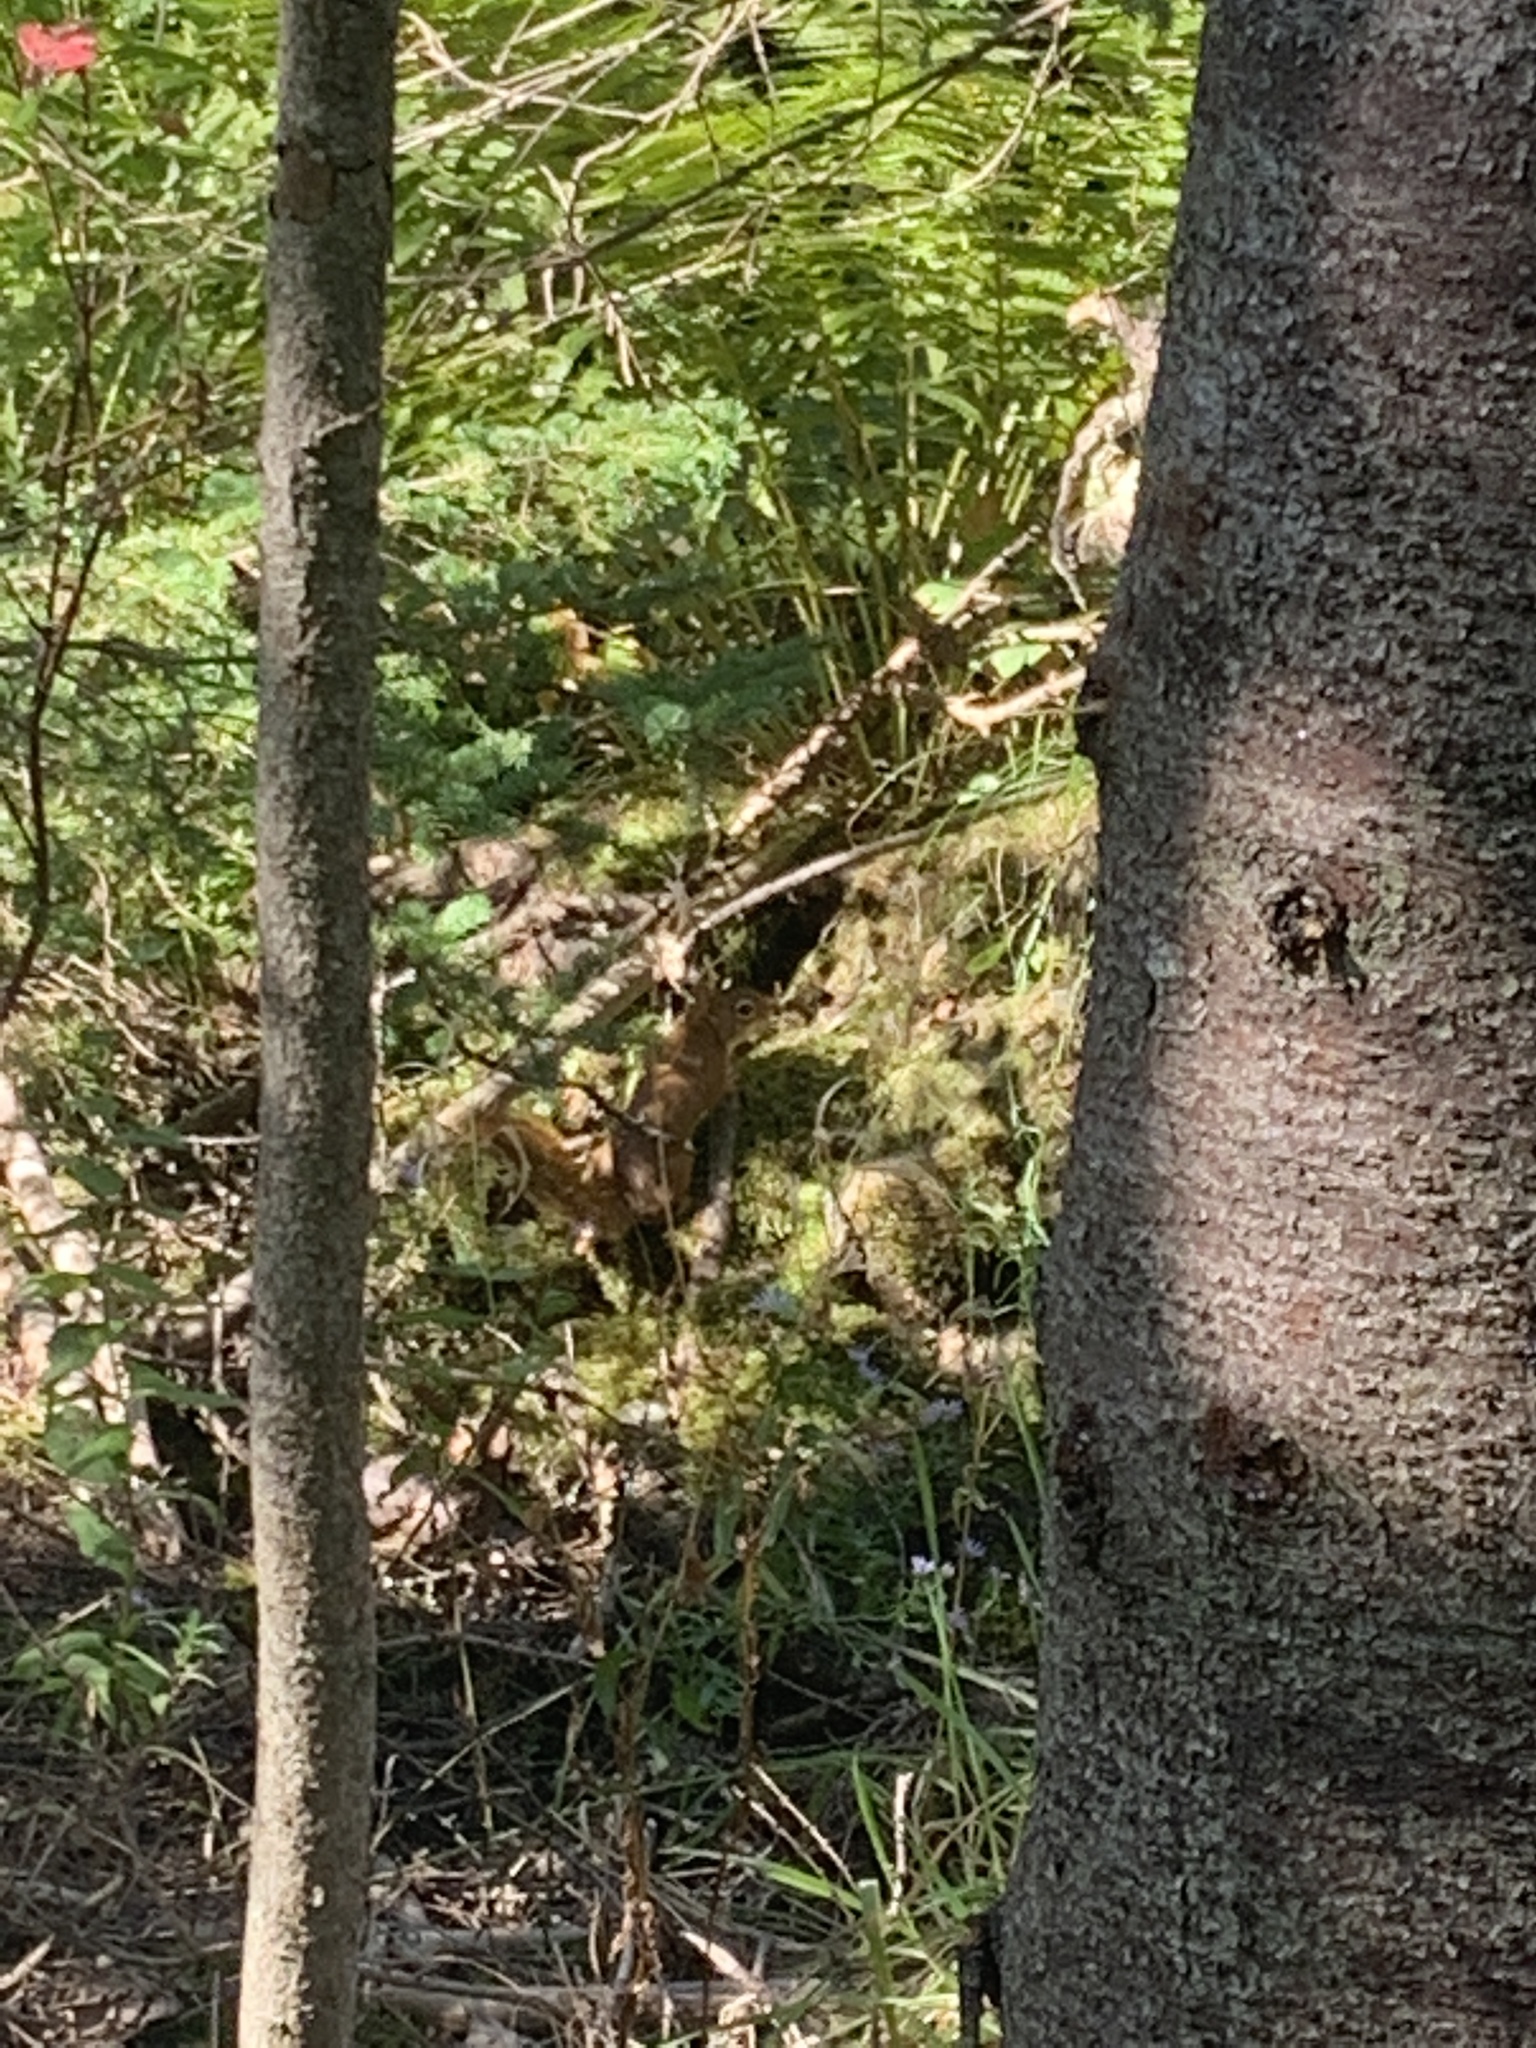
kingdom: Animalia
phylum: Chordata
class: Mammalia
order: Rodentia
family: Sciuridae
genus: Tamiasciurus
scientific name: Tamiasciurus hudsonicus
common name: Red squirrel
